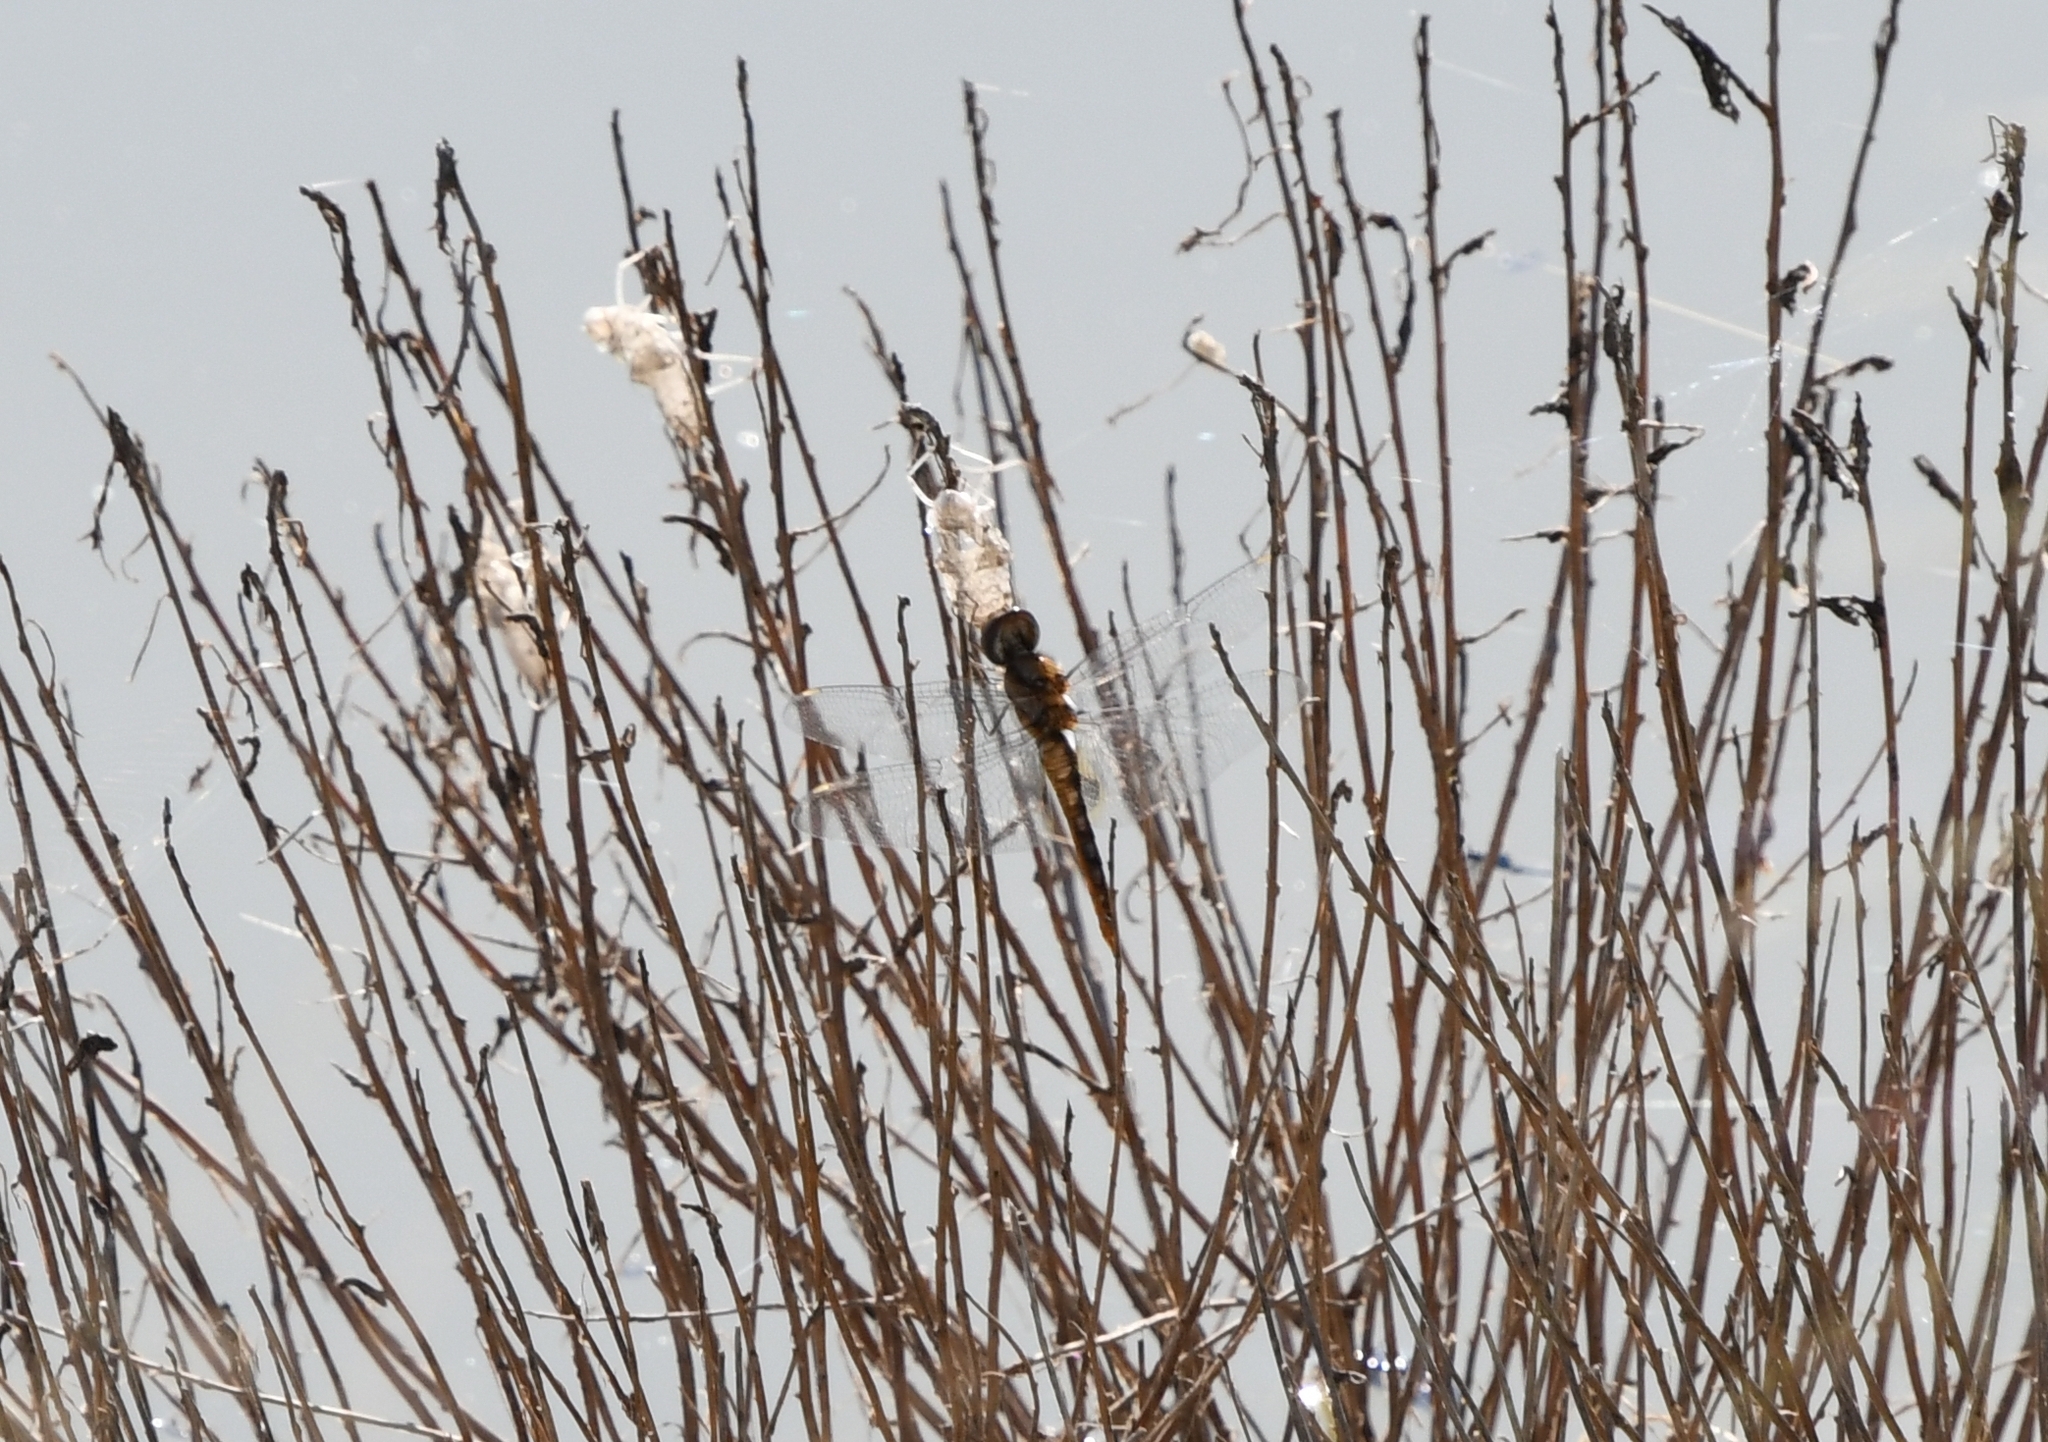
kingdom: Animalia
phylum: Arthropoda
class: Insecta
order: Odonata
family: Libellulidae
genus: Pantala
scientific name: Pantala hymenaea
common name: Spot-winged glider
